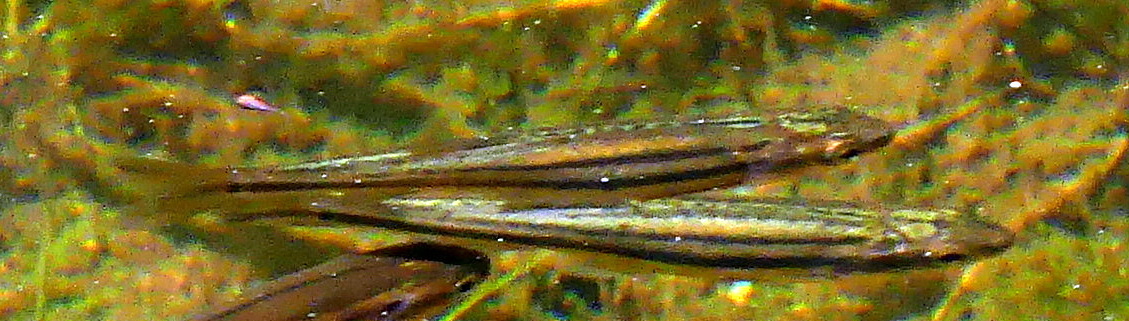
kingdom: Animalia
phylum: Chordata
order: Cypriniformes
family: Cyprinidae
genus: Chrosomus
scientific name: Chrosomus eos
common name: Northern redbelly dace
